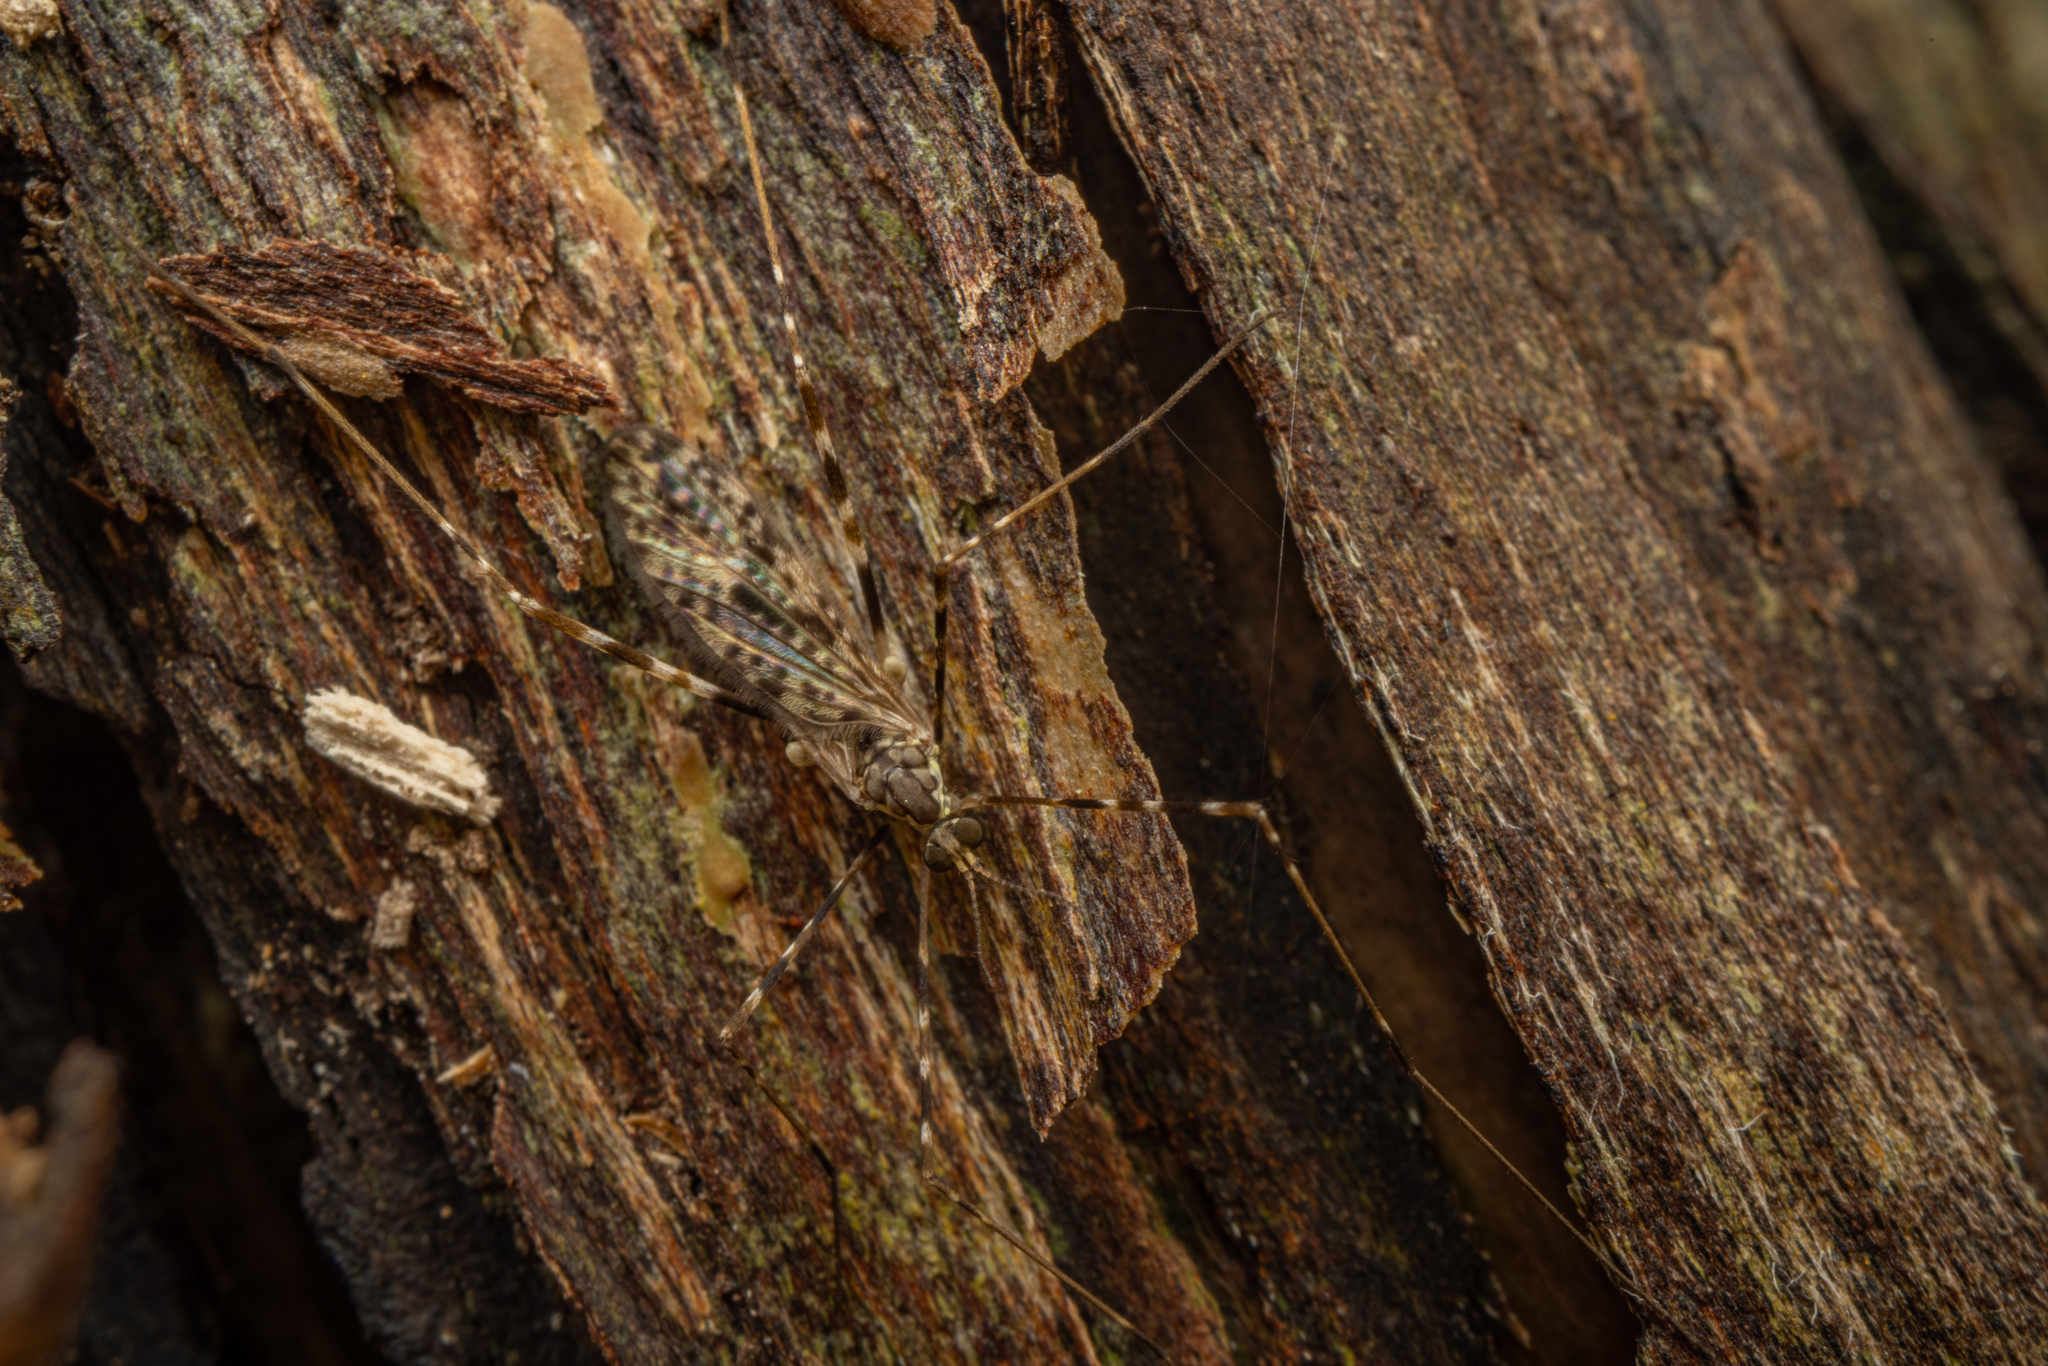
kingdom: Animalia
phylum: Arthropoda
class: Insecta
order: Diptera
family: Limoniidae
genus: Amphineurus
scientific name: Amphineurus hudsoni
